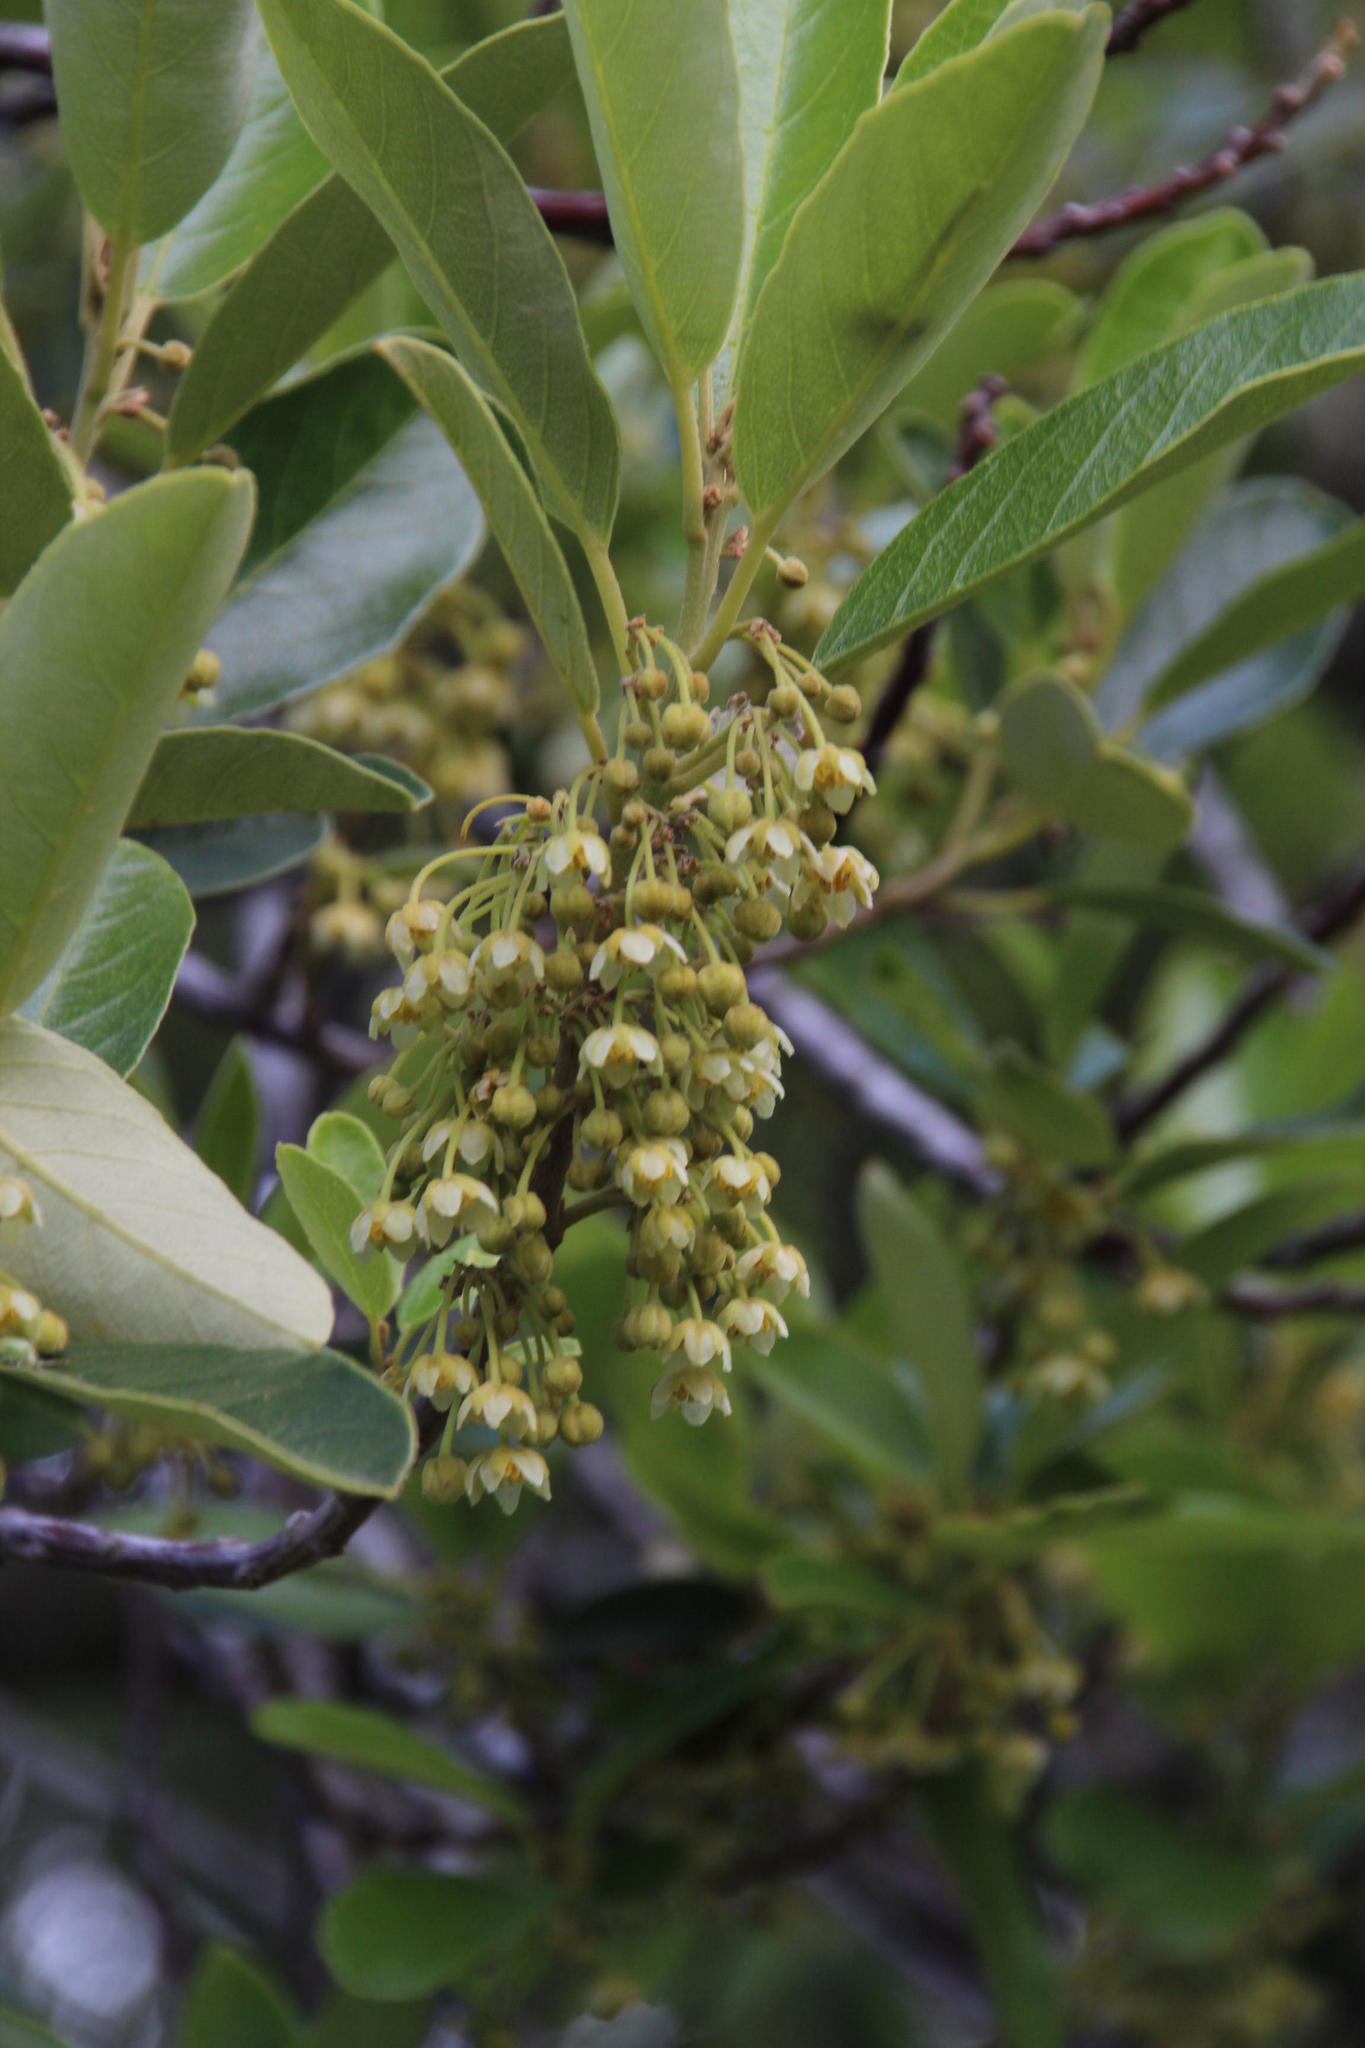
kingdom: Plantae
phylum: Tracheophyta
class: Magnoliopsida
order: Malpighiales
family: Achariaceae
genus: Kiggelaria
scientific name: Kiggelaria africana
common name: Wild peach
